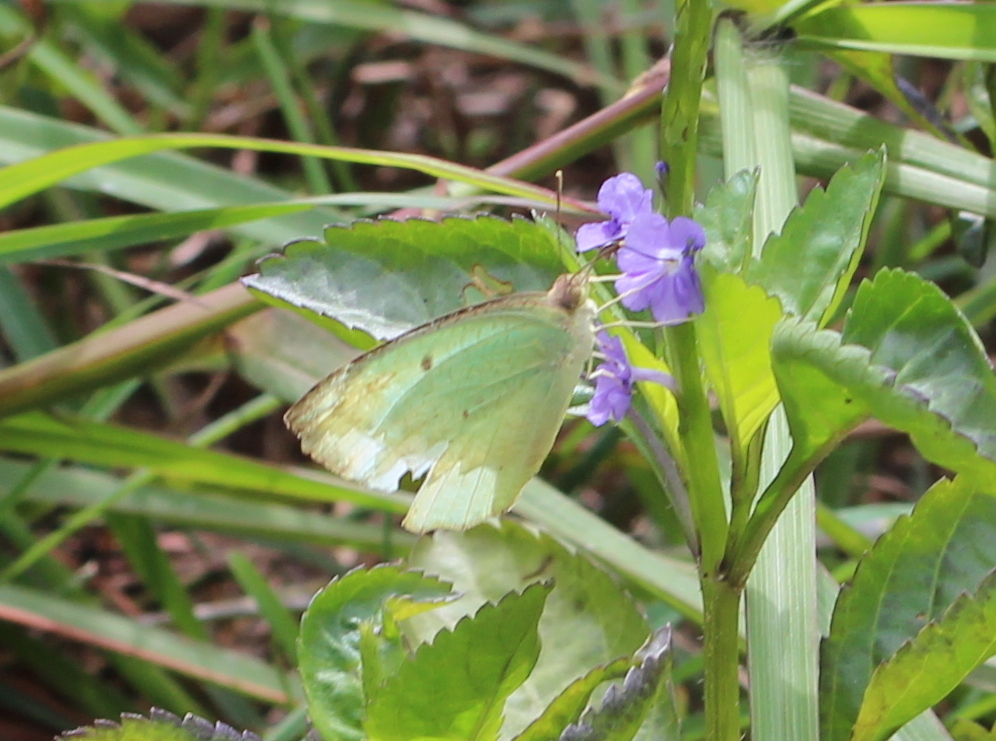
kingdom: Animalia
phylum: Arthropoda
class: Insecta
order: Lepidoptera
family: Pieridae
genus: Catopsilia
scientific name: Catopsilia pyranthe
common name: Mottled emigrant
